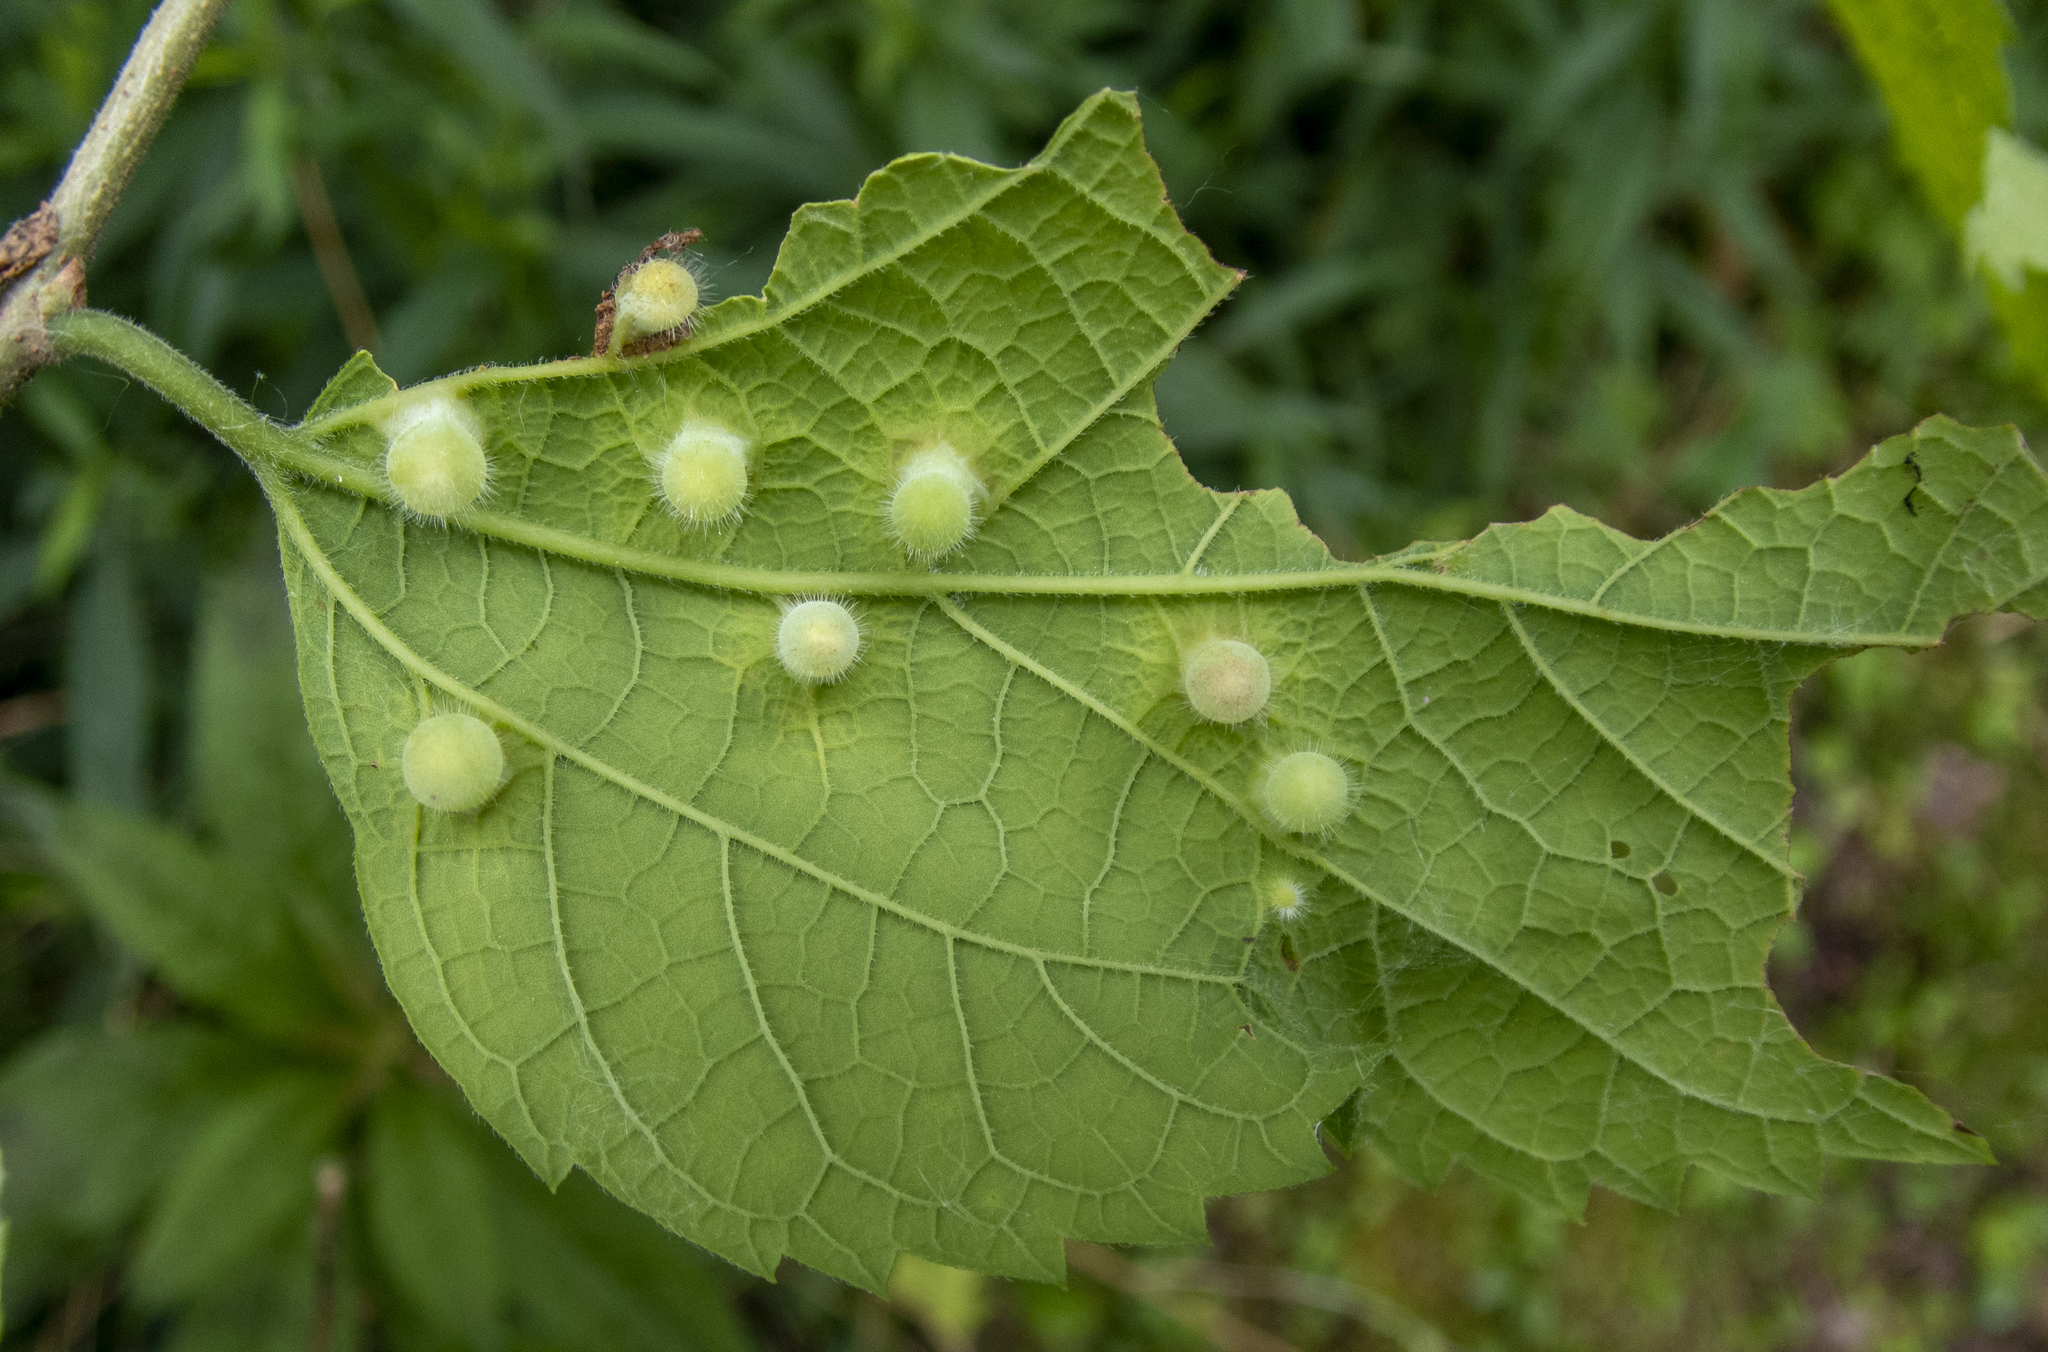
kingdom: Animalia
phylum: Arthropoda
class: Insecta
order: Hemiptera
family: Aphalaridae
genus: Pachypsylla
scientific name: Pachypsylla celtidismamma
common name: Hackberry nipplegall psyllid
